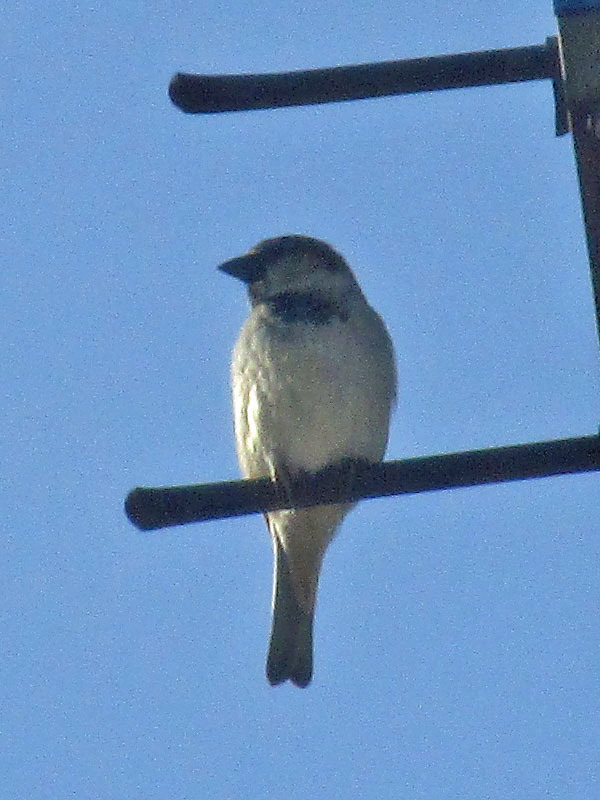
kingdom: Animalia
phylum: Chordata
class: Aves
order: Passeriformes
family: Passeridae
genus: Passer
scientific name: Passer domesticus
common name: House sparrow
